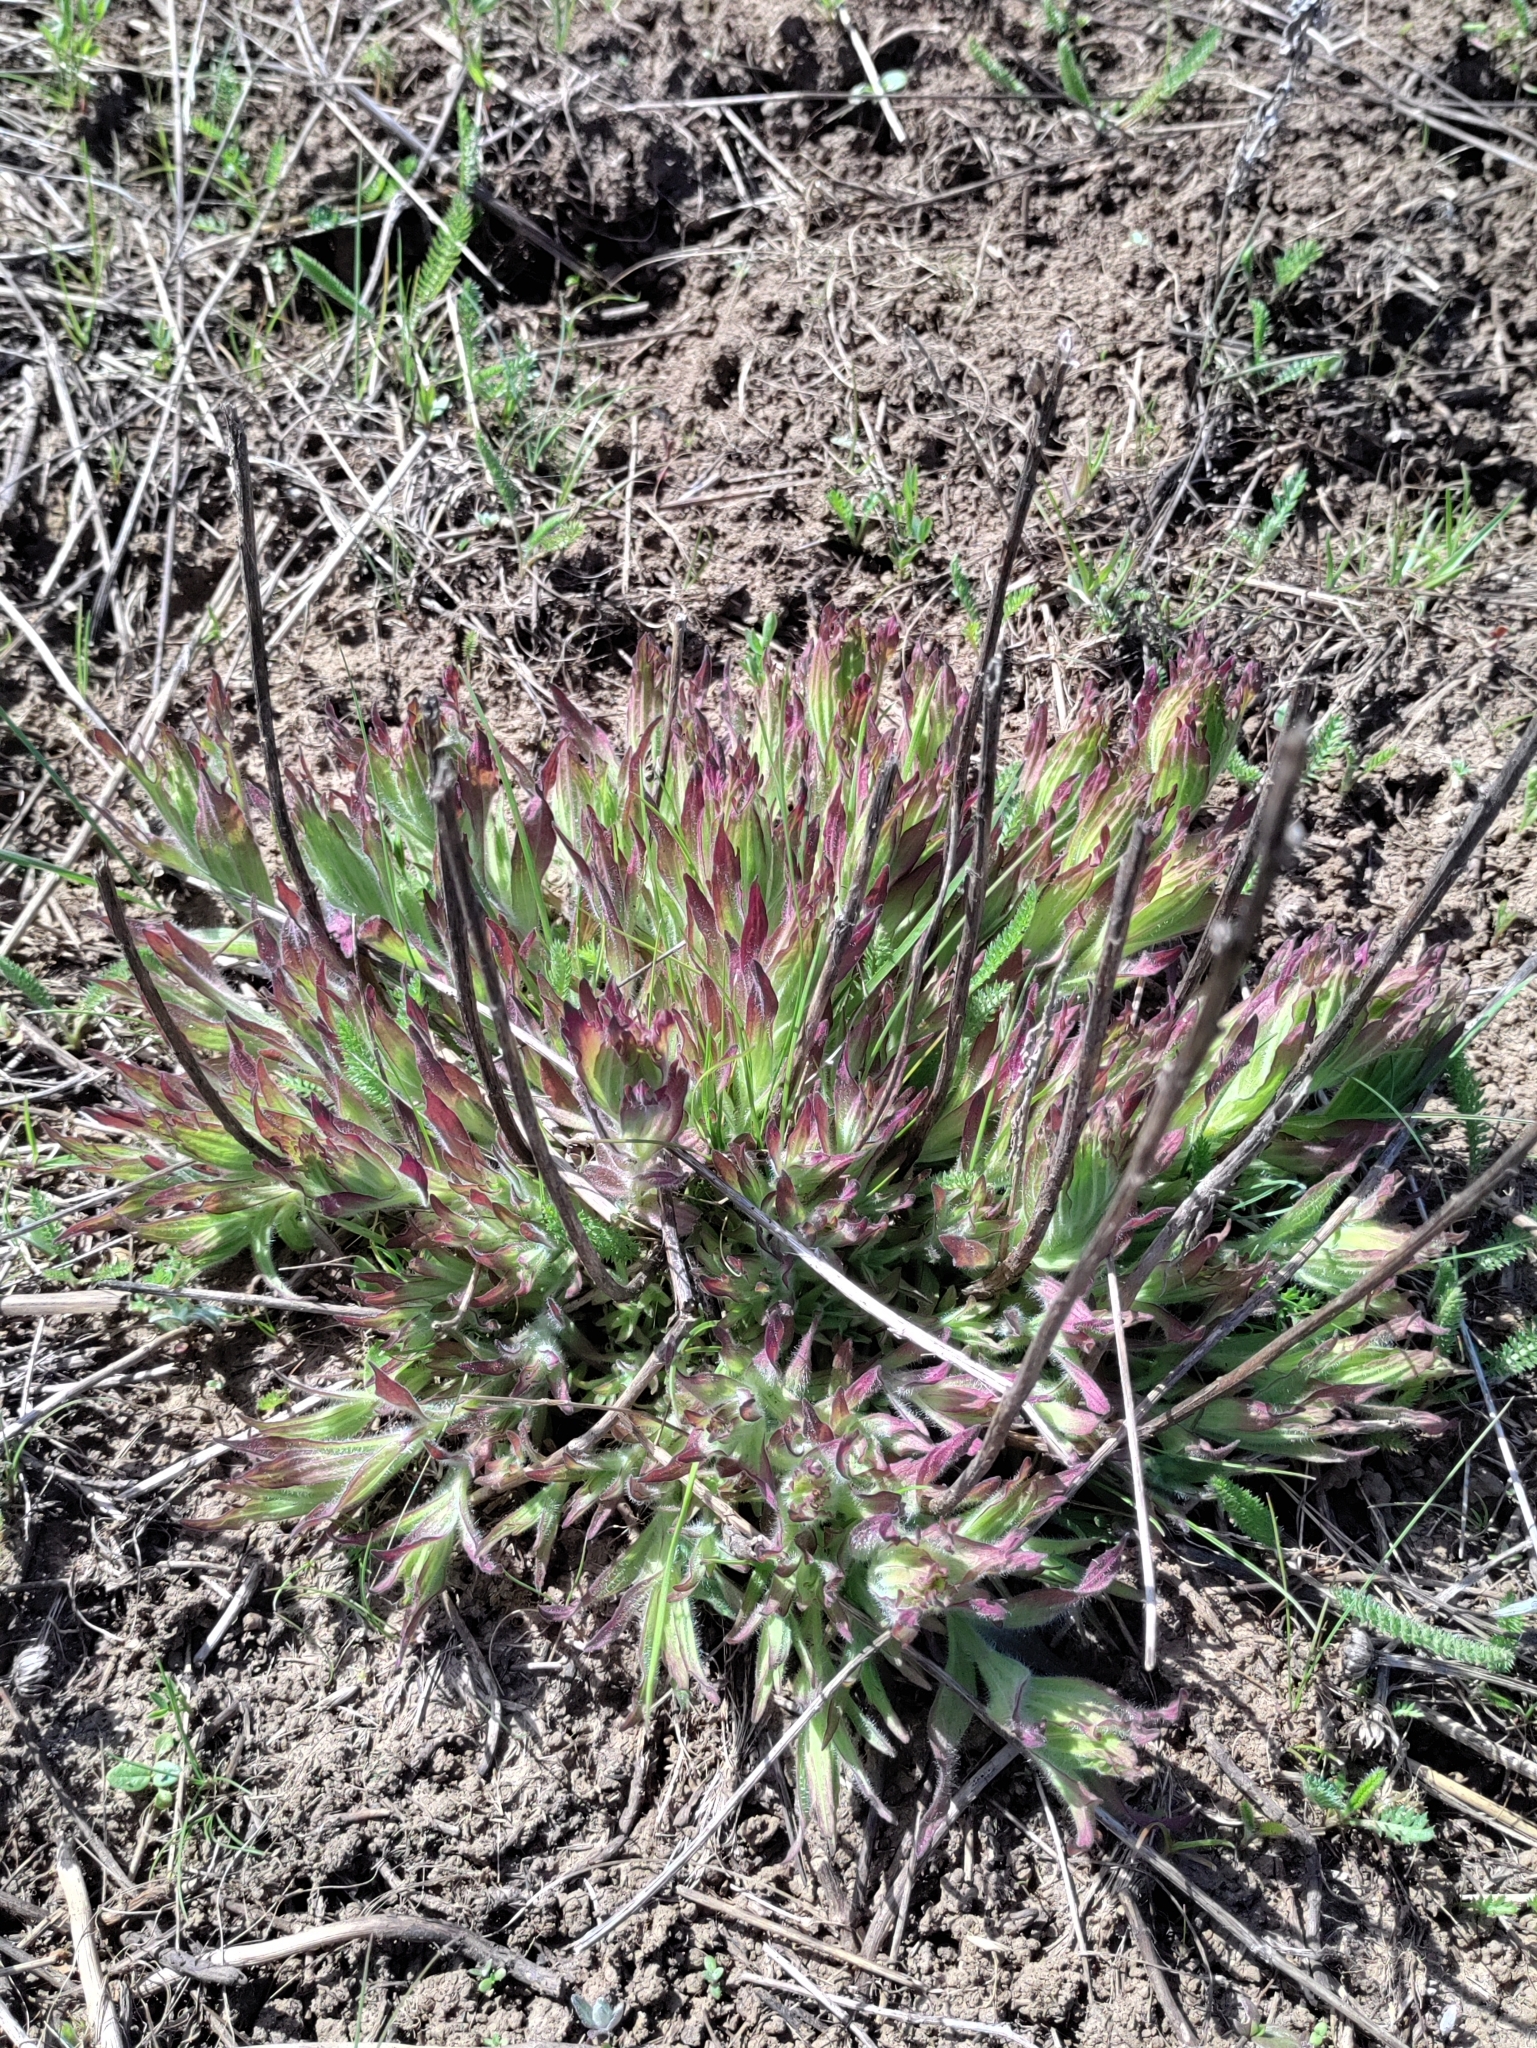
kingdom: Plantae
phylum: Tracheophyta
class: Magnoliopsida
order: Lamiales
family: Orobanchaceae
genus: Castilleja
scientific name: Castilleja levisecta
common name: Golden paintbrush
